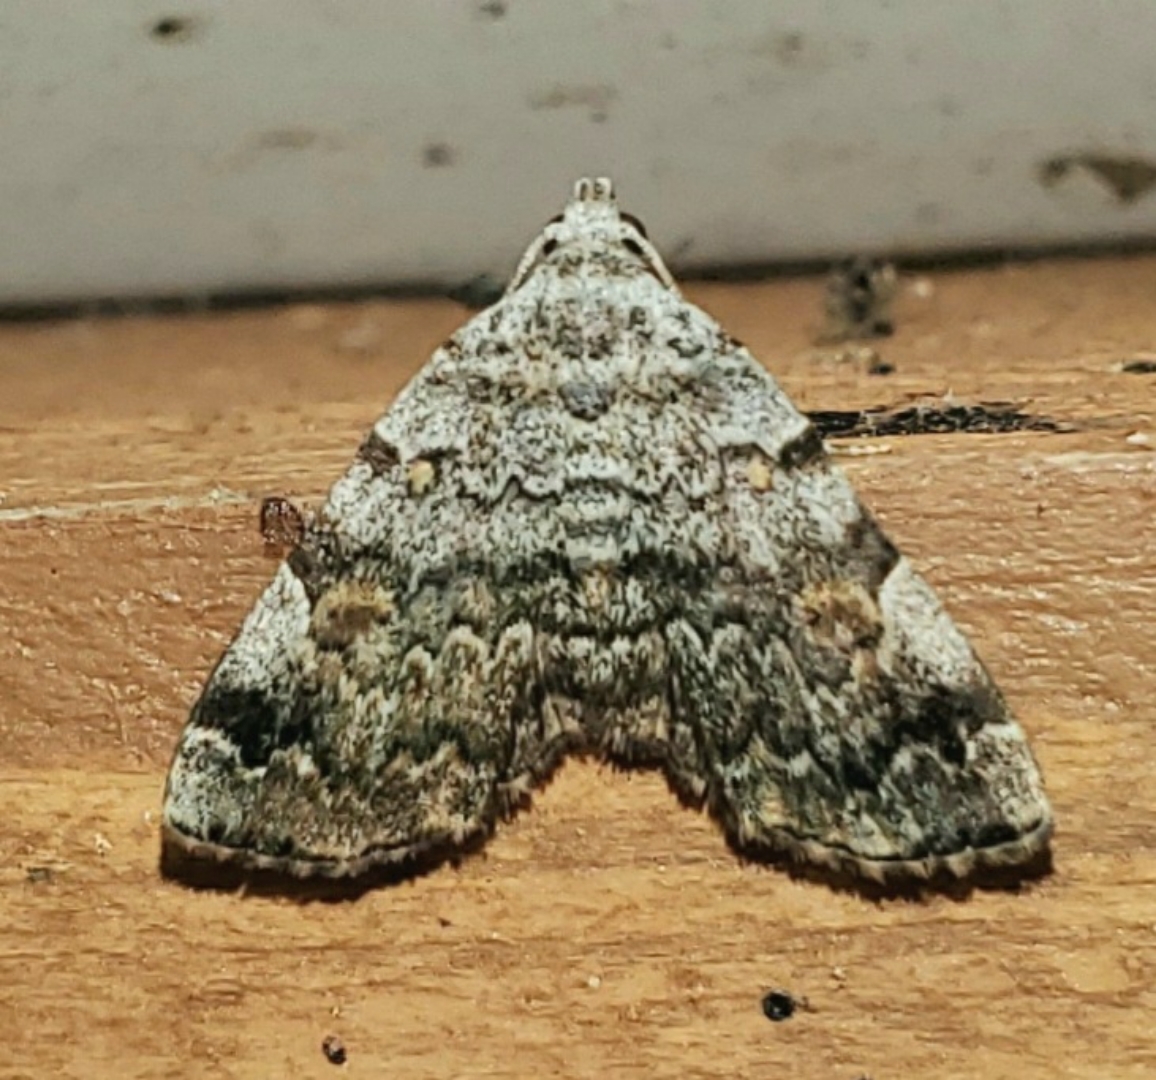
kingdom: Animalia
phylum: Arthropoda
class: Insecta
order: Lepidoptera
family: Erebidae
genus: Idia
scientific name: Idia americalis
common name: American idia moth
